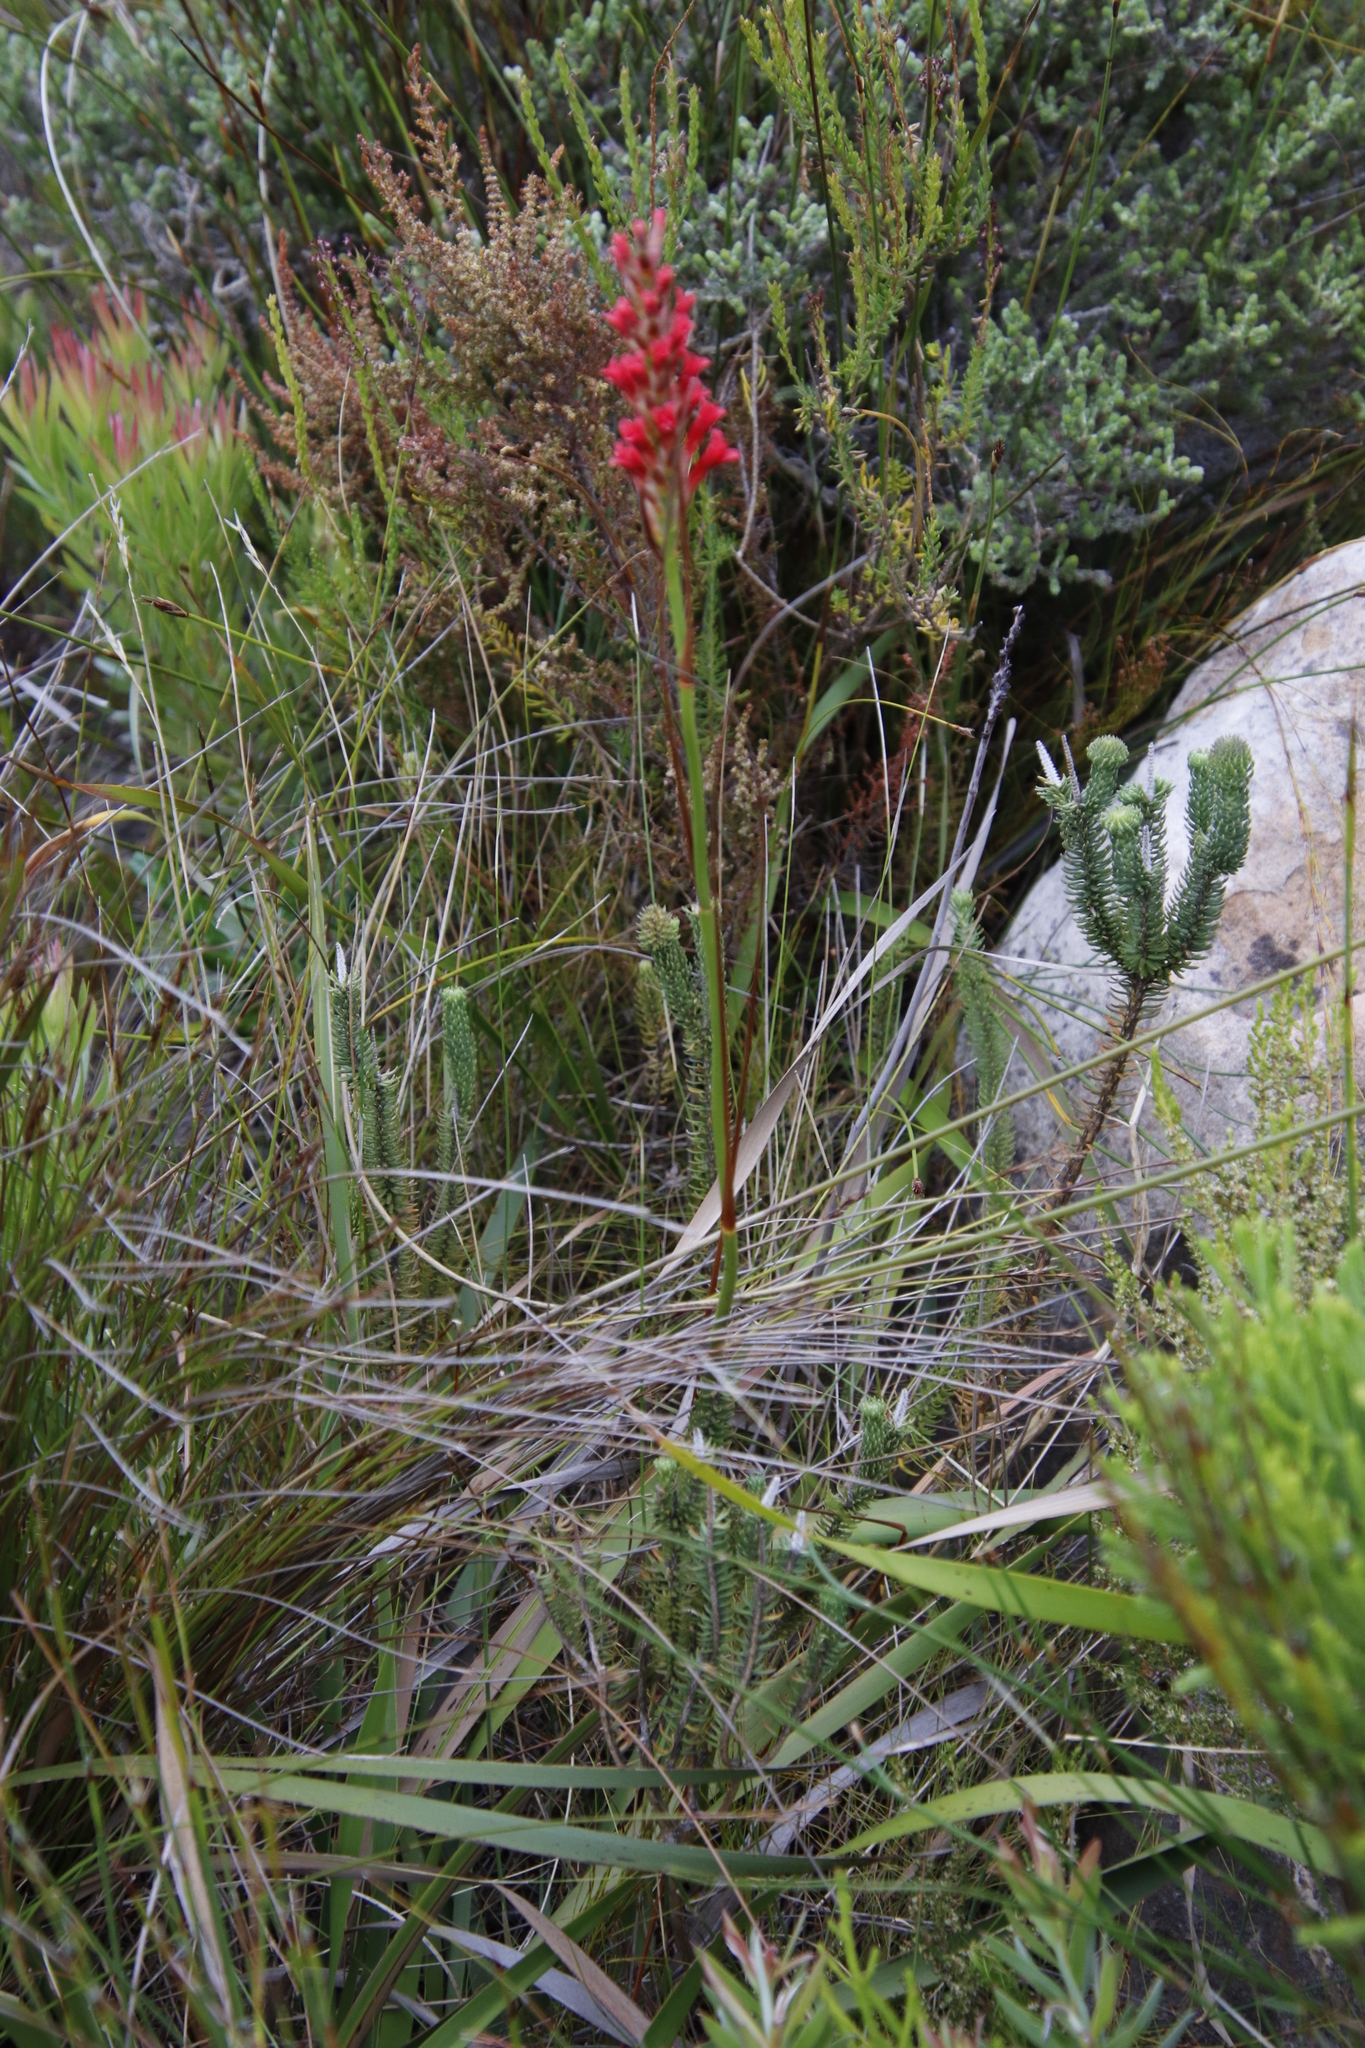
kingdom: Plantae
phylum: Tracheophyta
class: Liliopsida
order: Asparagales
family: Iridaceae
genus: Tritoniopsis
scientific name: Tritoniopsis triticea
